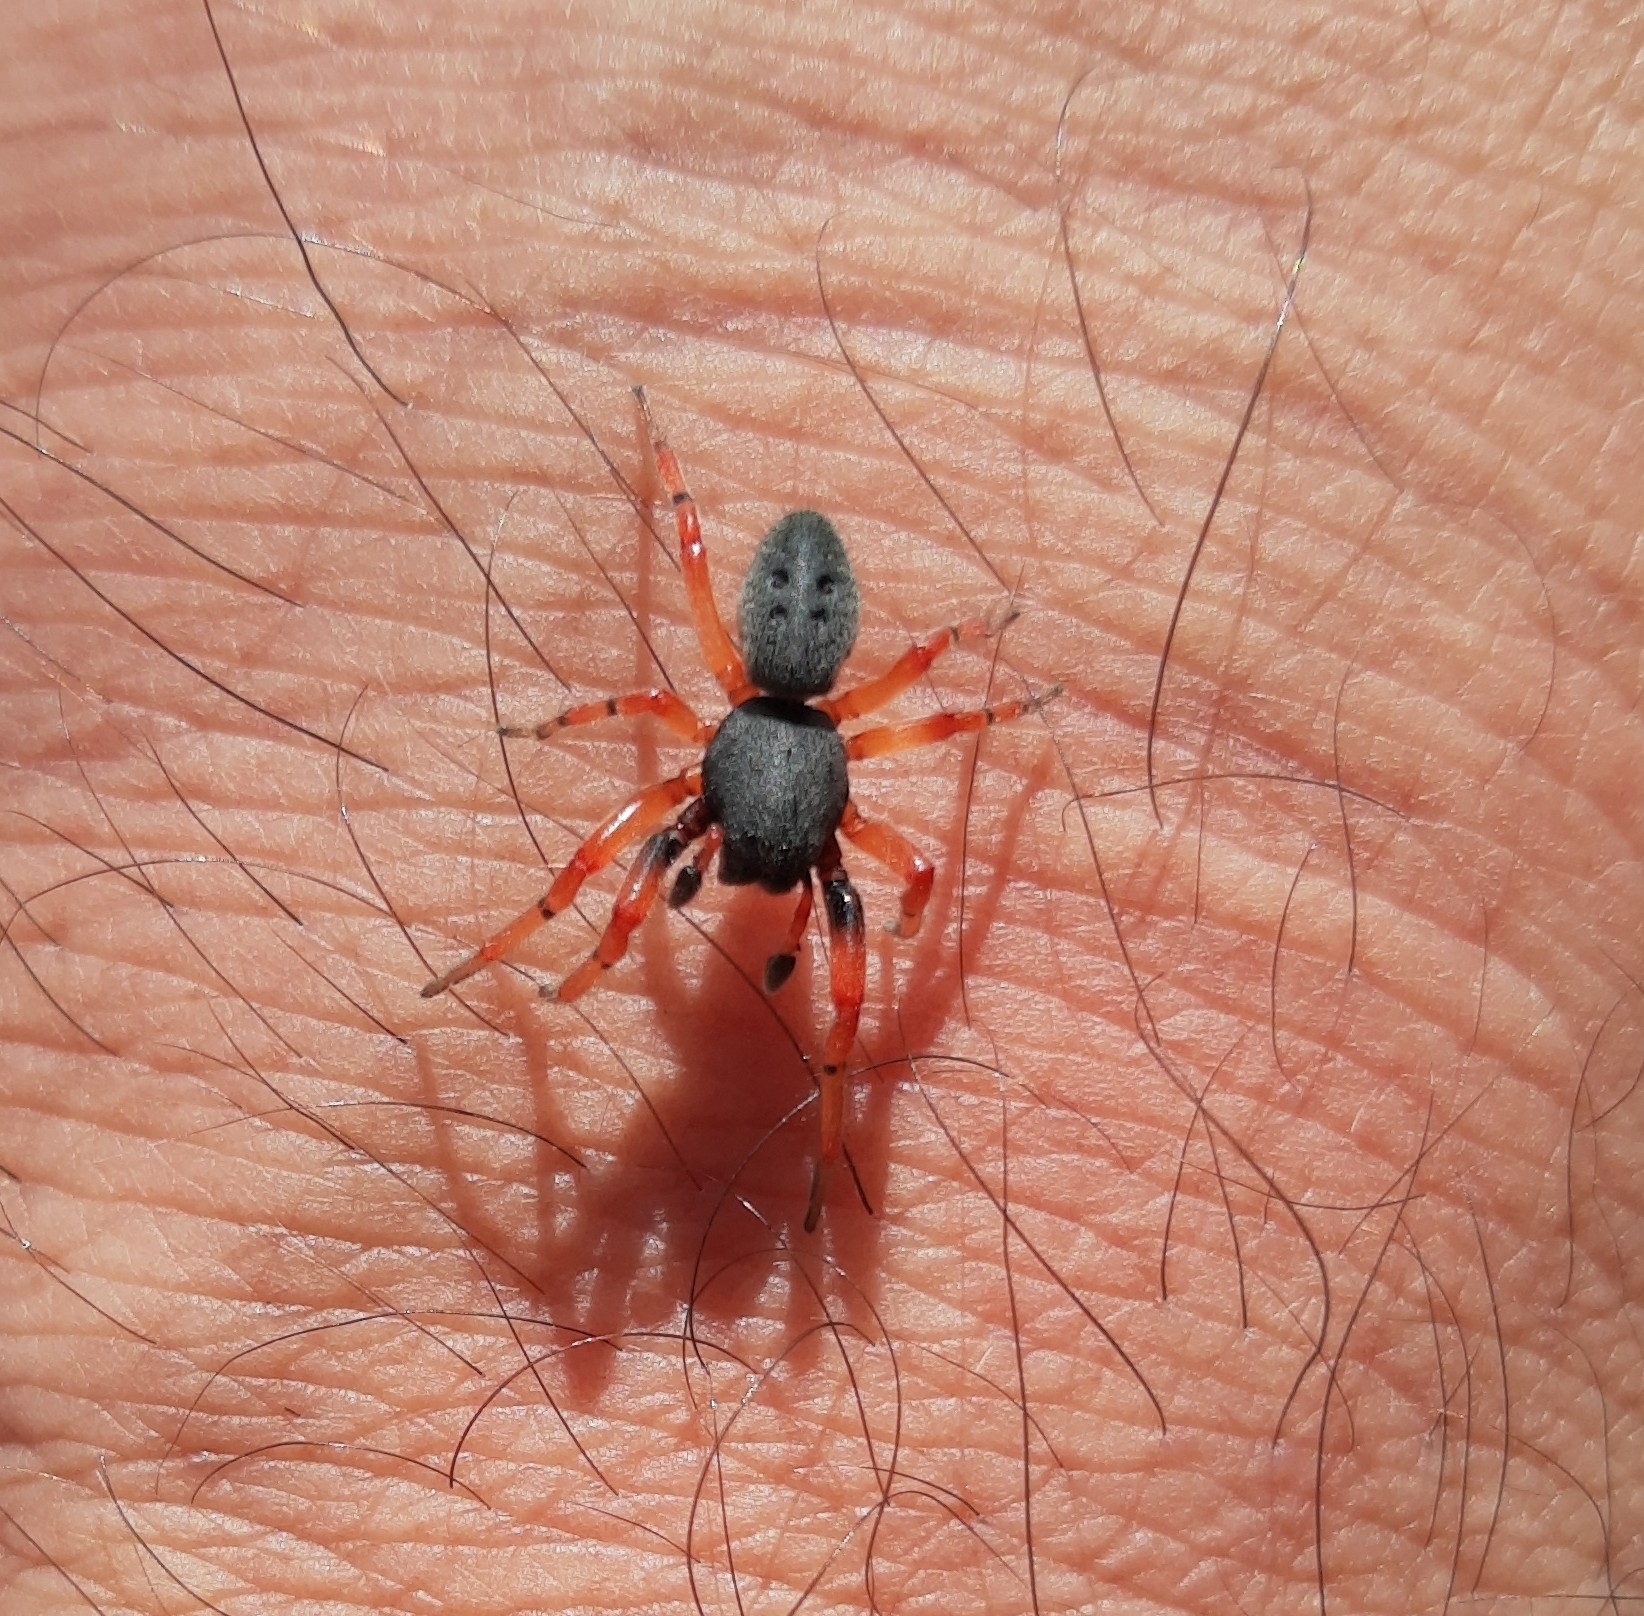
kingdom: Animalia
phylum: Arthropoda
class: Arachnida
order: Araneae
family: Trachelidae
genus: Trachelopachys
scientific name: Trachelopachys
